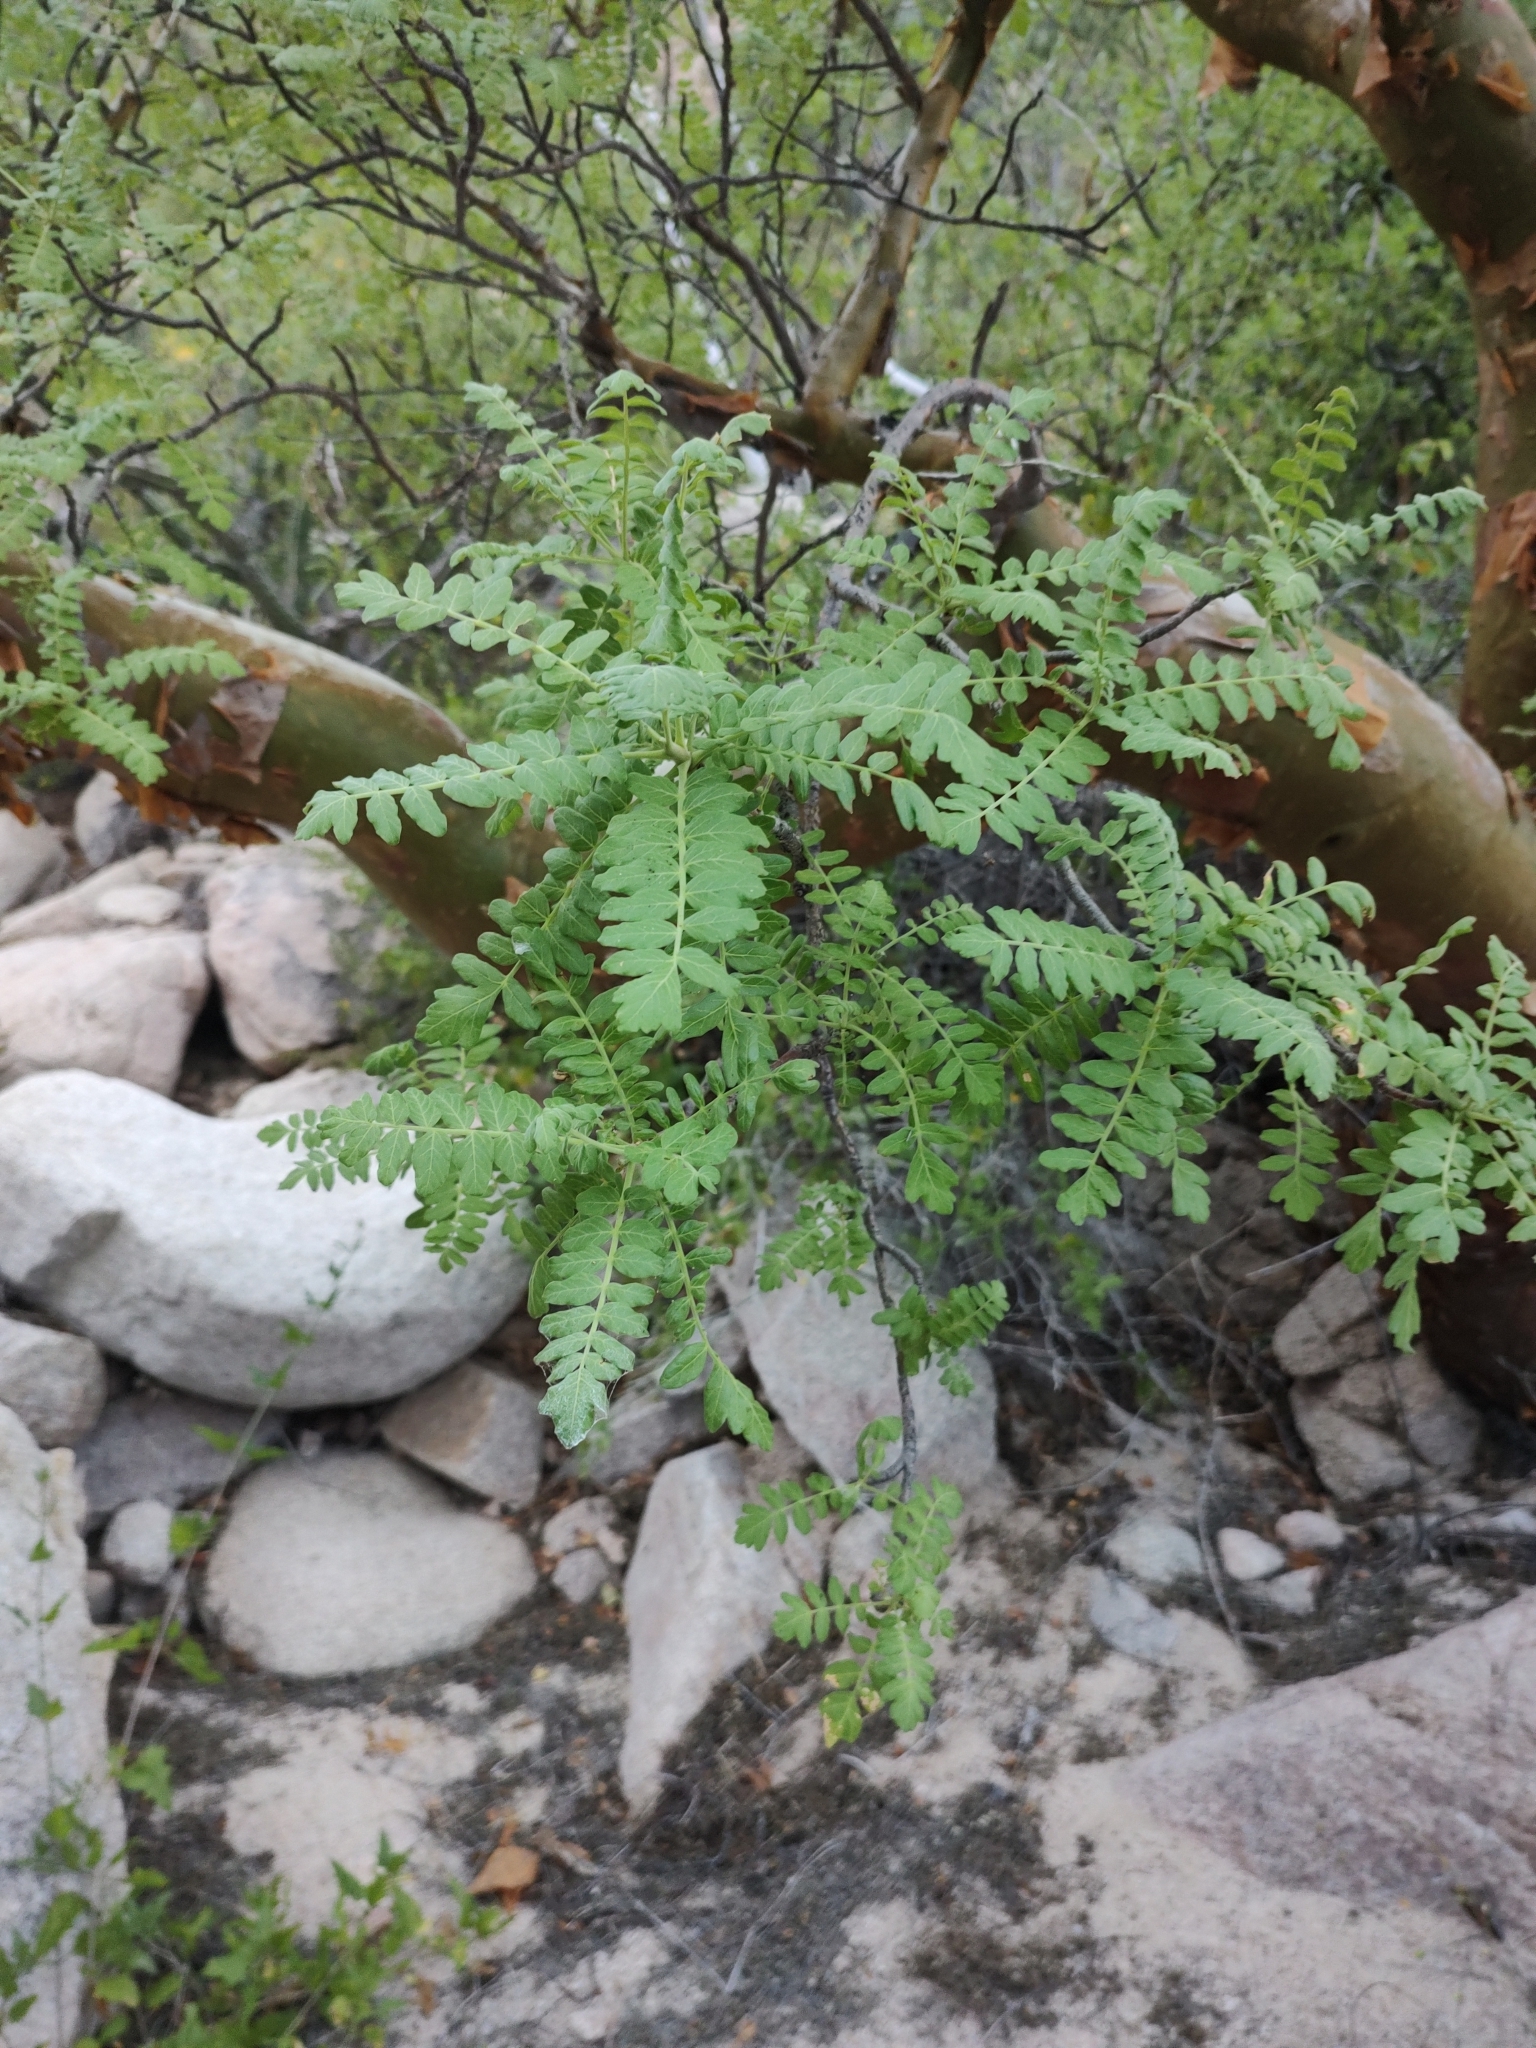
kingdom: Plantae
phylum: Tracheophyta
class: Magnoliopsida
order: Sapindales
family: Anacardiaceae
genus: Pachycormus
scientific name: Pachycormus discolor
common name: Succulent elephant trees
